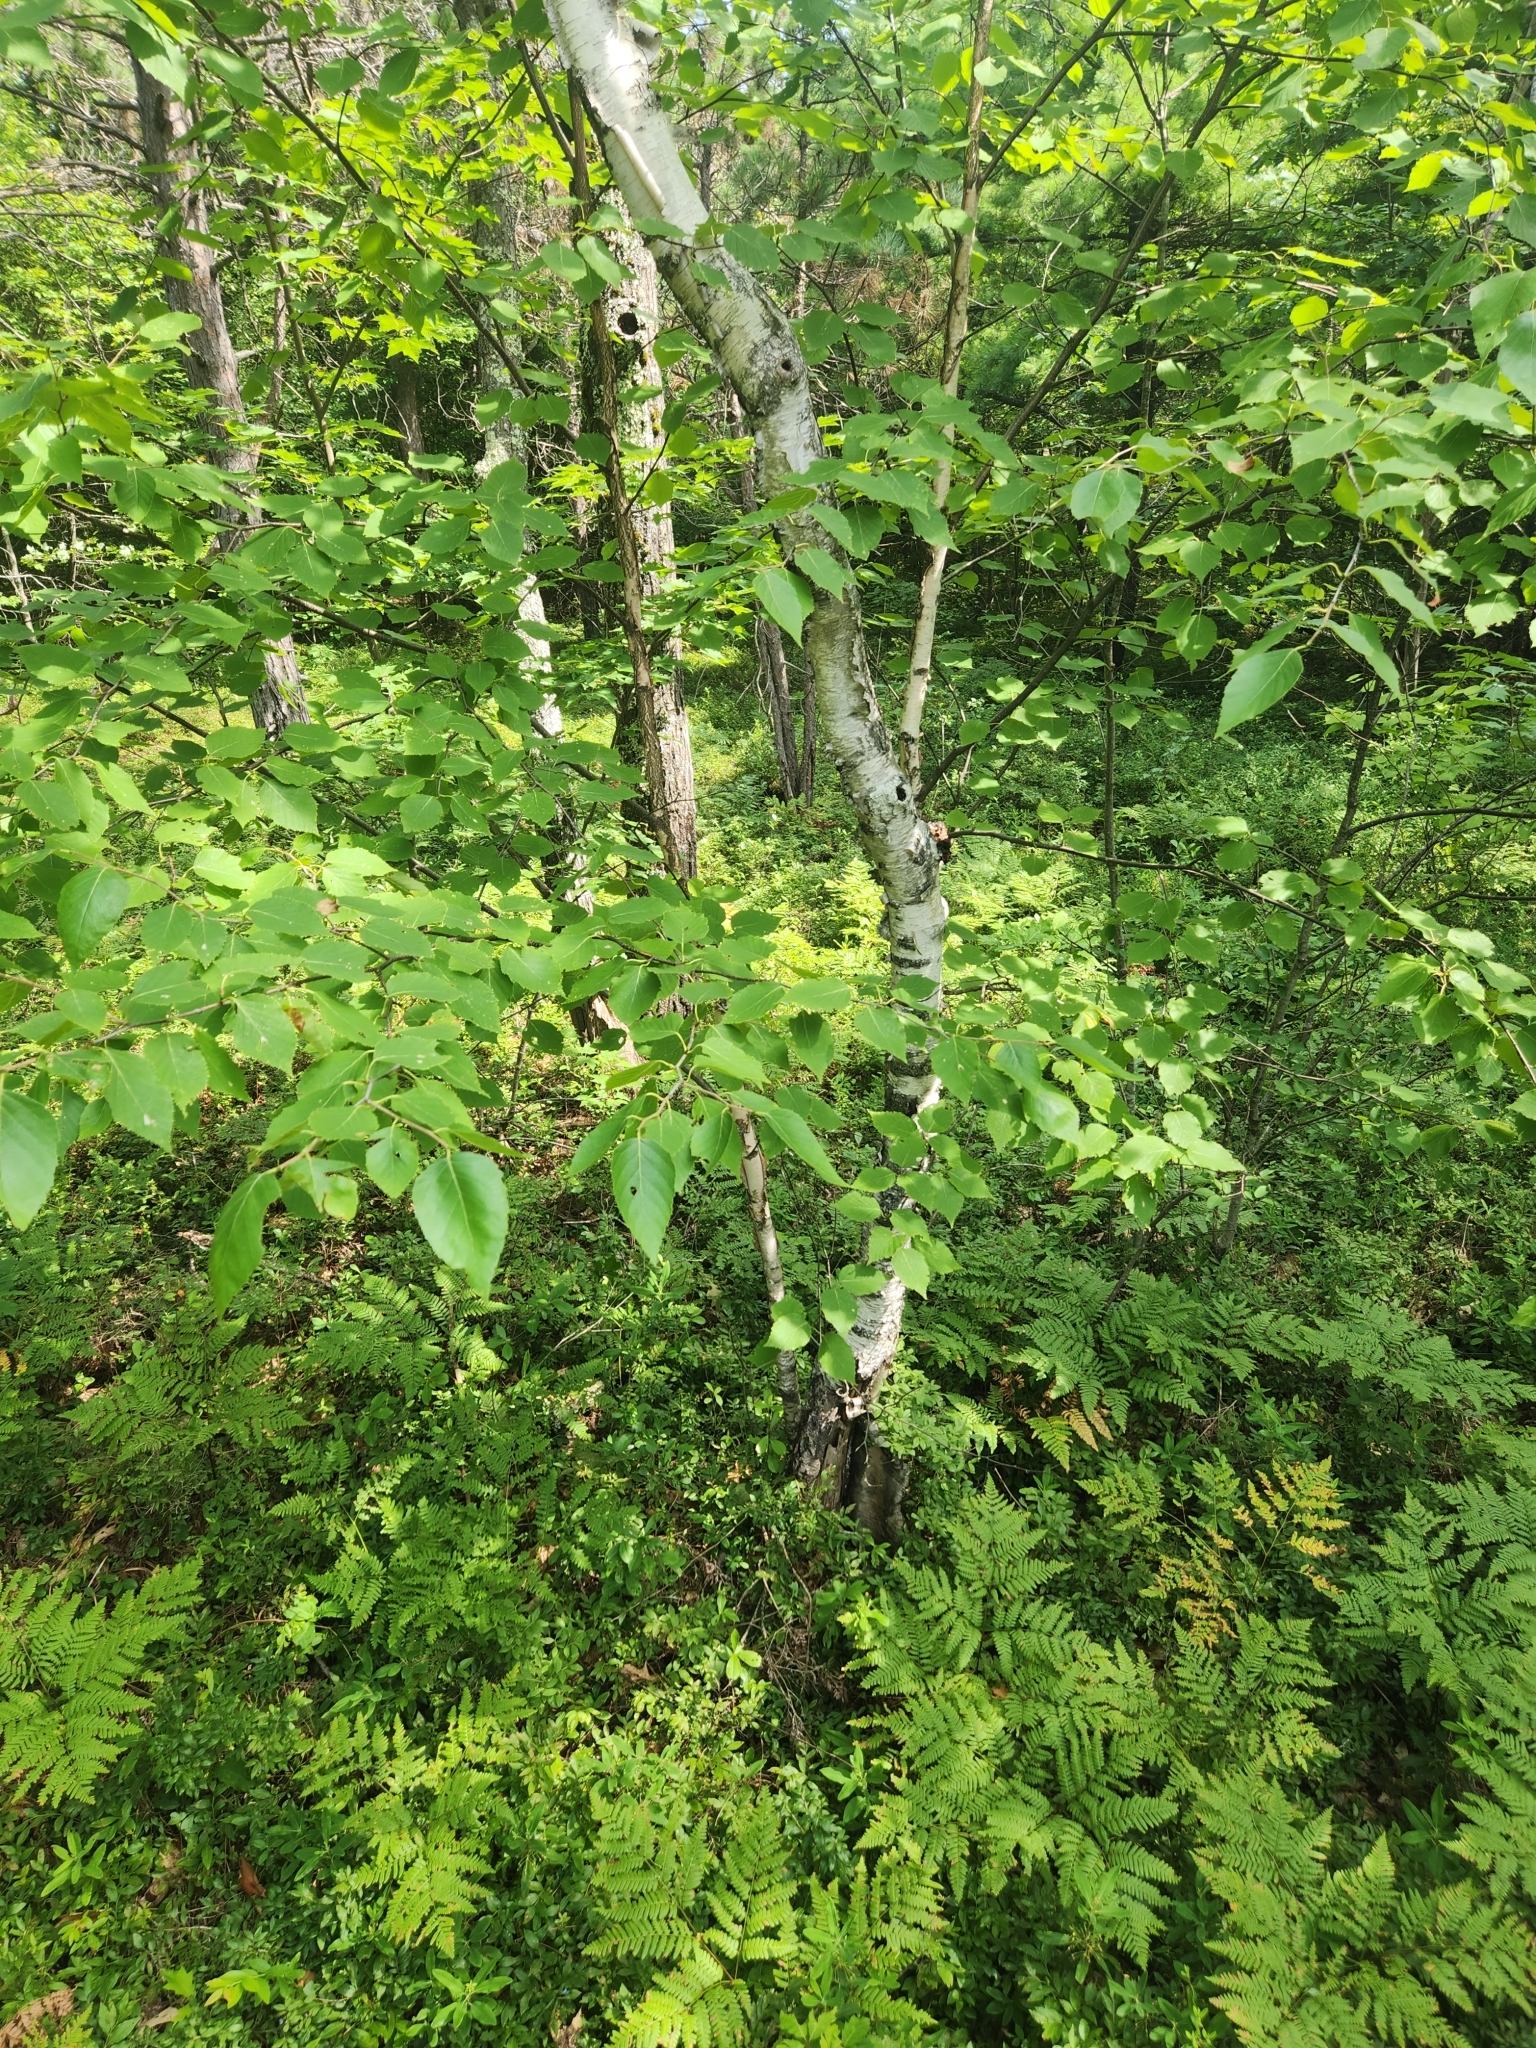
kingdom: Plantae
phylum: Tracheophyta
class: Magnoliopsida
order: Fagales
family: Betulaceae
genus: Betula
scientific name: Betula papyrifera
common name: Paper birch
